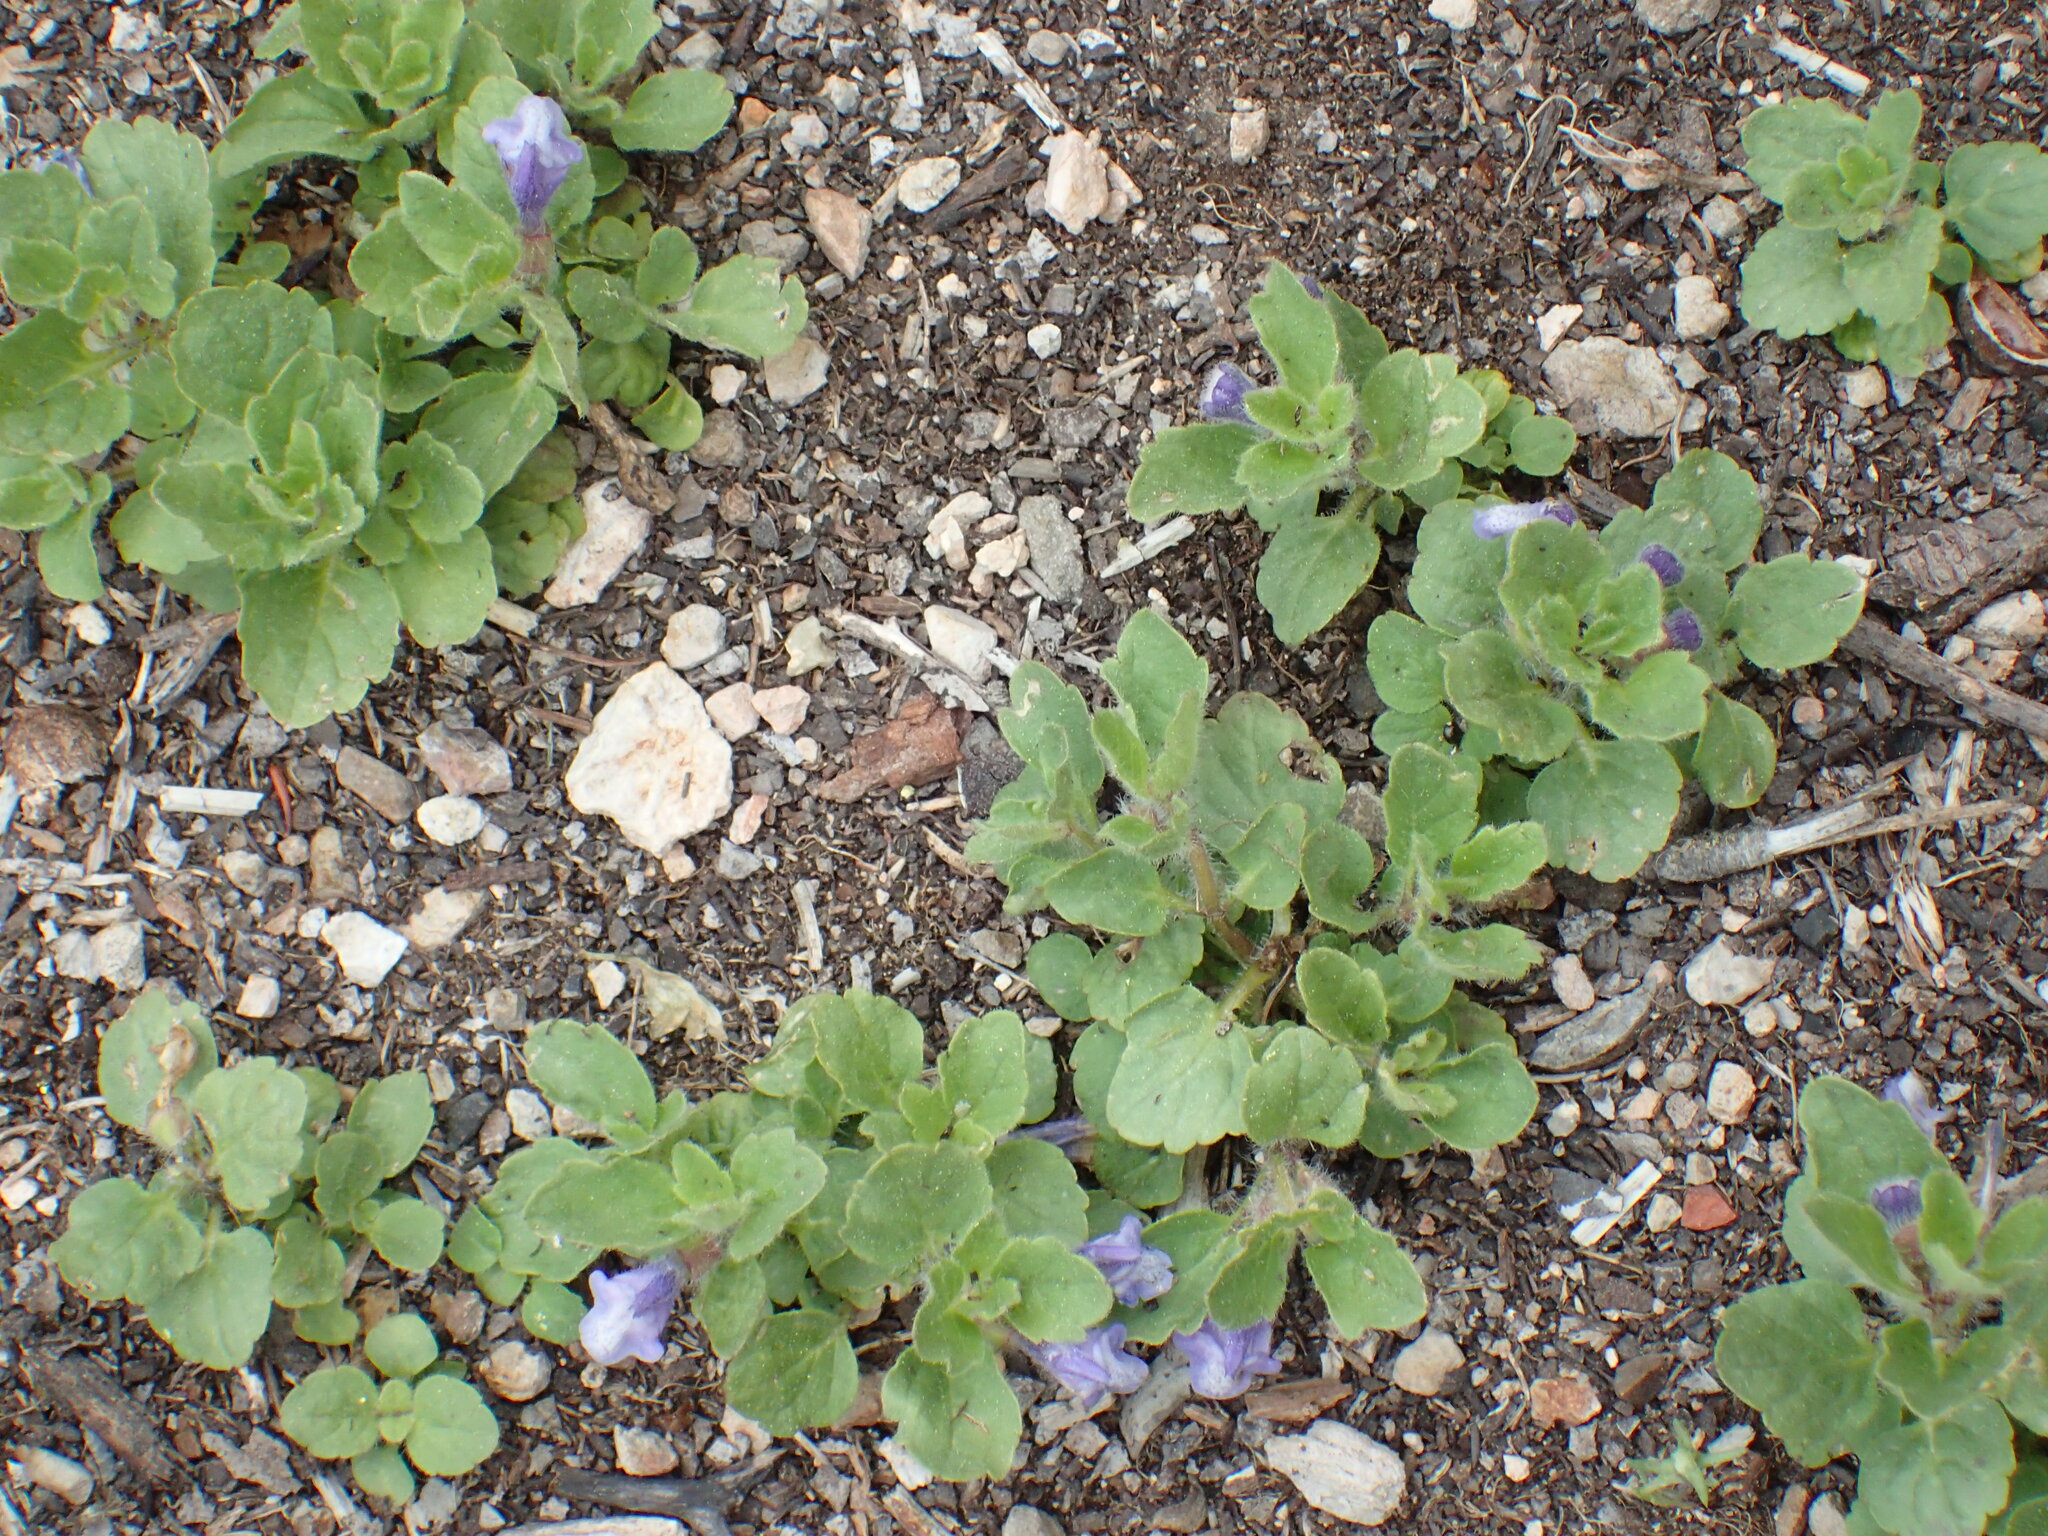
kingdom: Plantae
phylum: Tracheophyta
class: Magnoliopsida
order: Lamiales
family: Lamiaceae
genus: Scutellaria
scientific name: Scutellaria tuberosa
